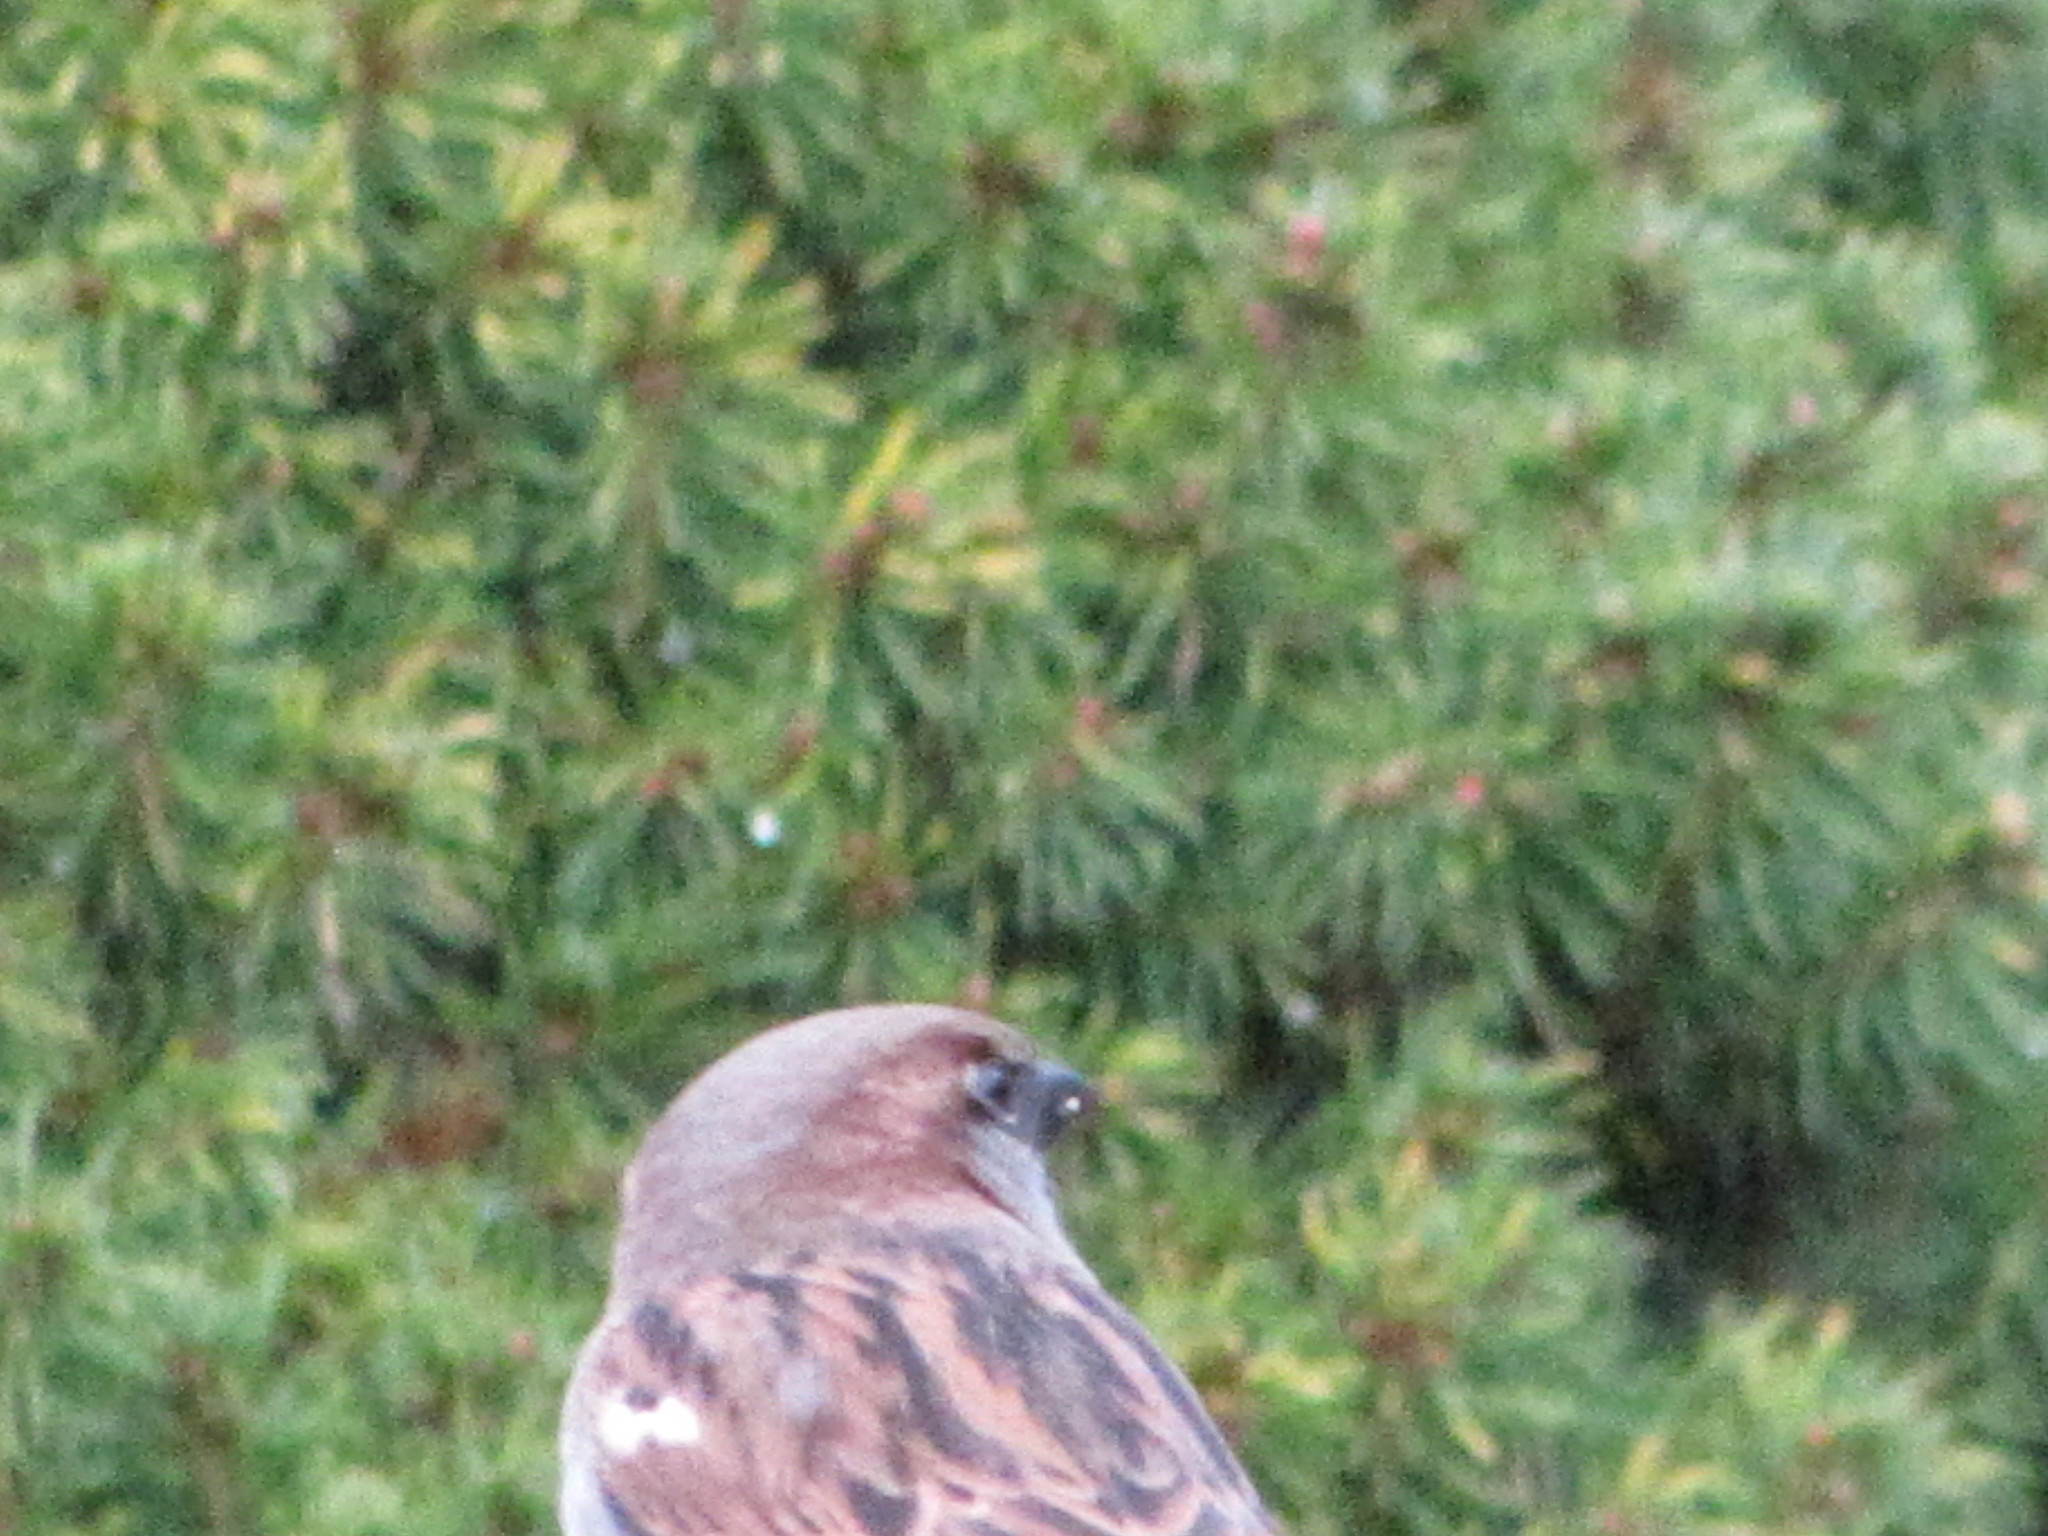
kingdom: Animalia
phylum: Chordata
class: Aves
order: Passeriformes
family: Passeridae
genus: Passer
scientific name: Passer domesticus
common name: House sparrow
